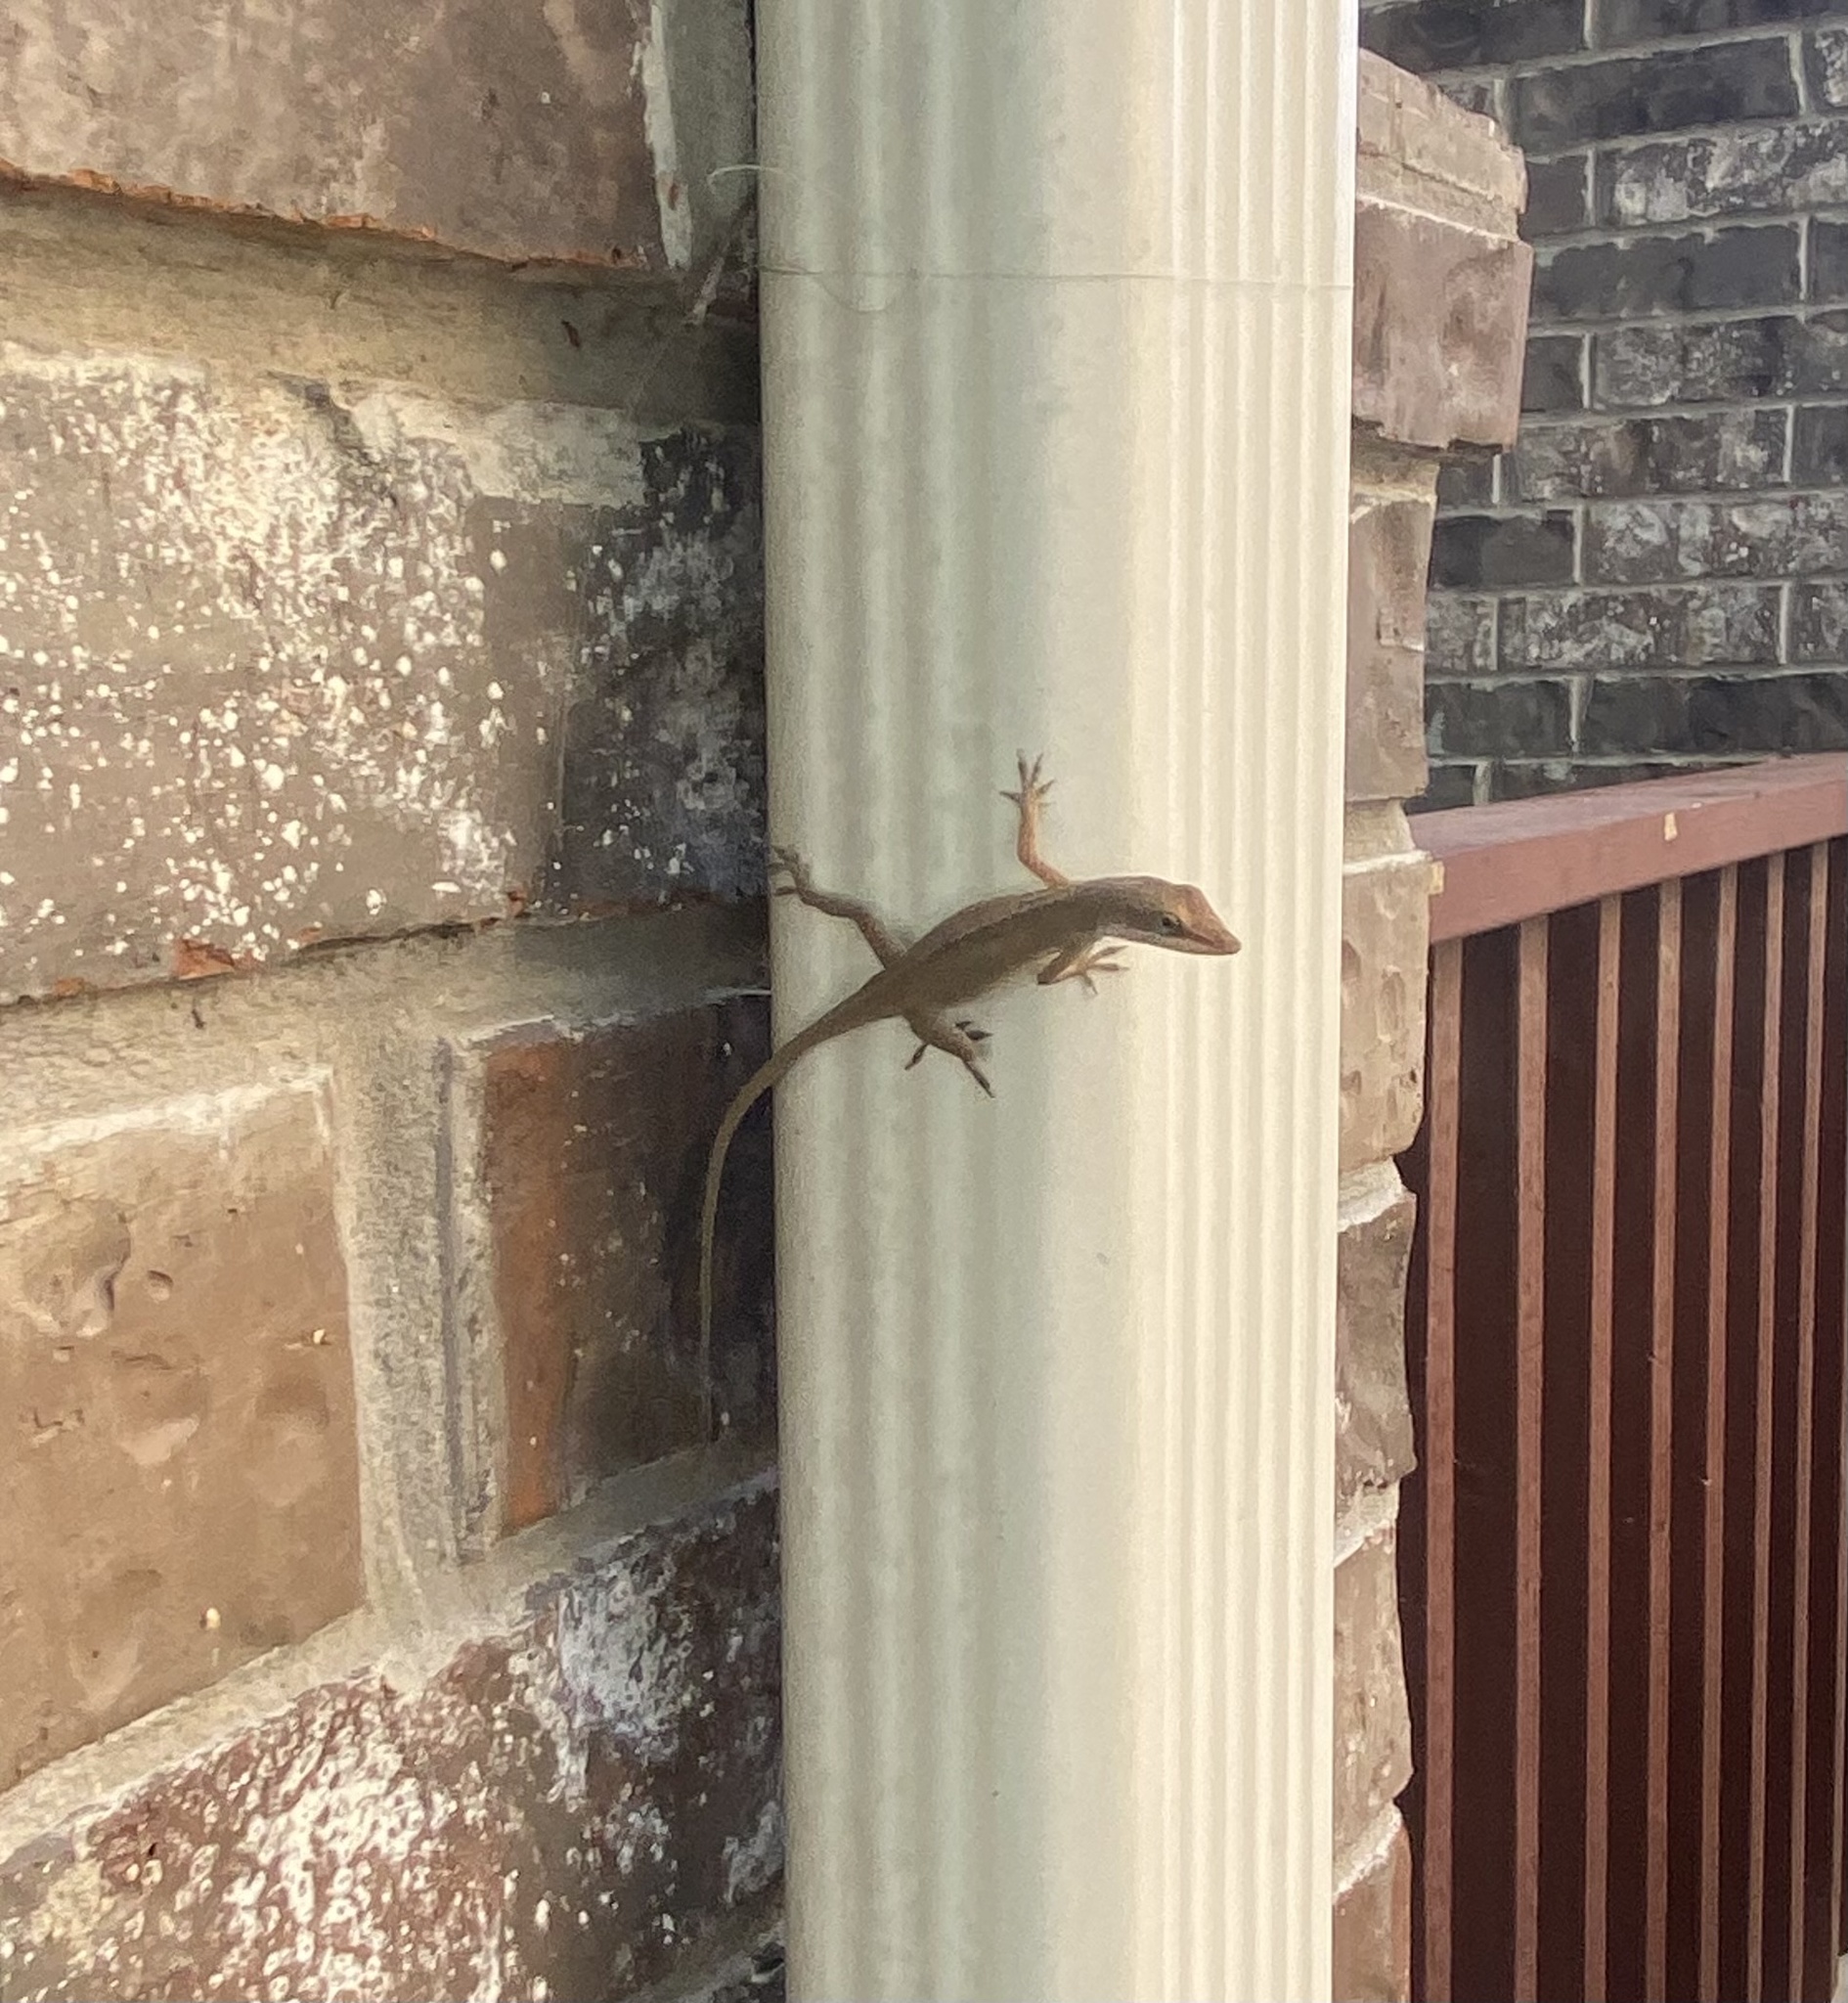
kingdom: Animalia
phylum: Chordata
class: Squamata
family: Dactyloidae
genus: Anolis
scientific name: Anolis carolinensis
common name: Green anole
